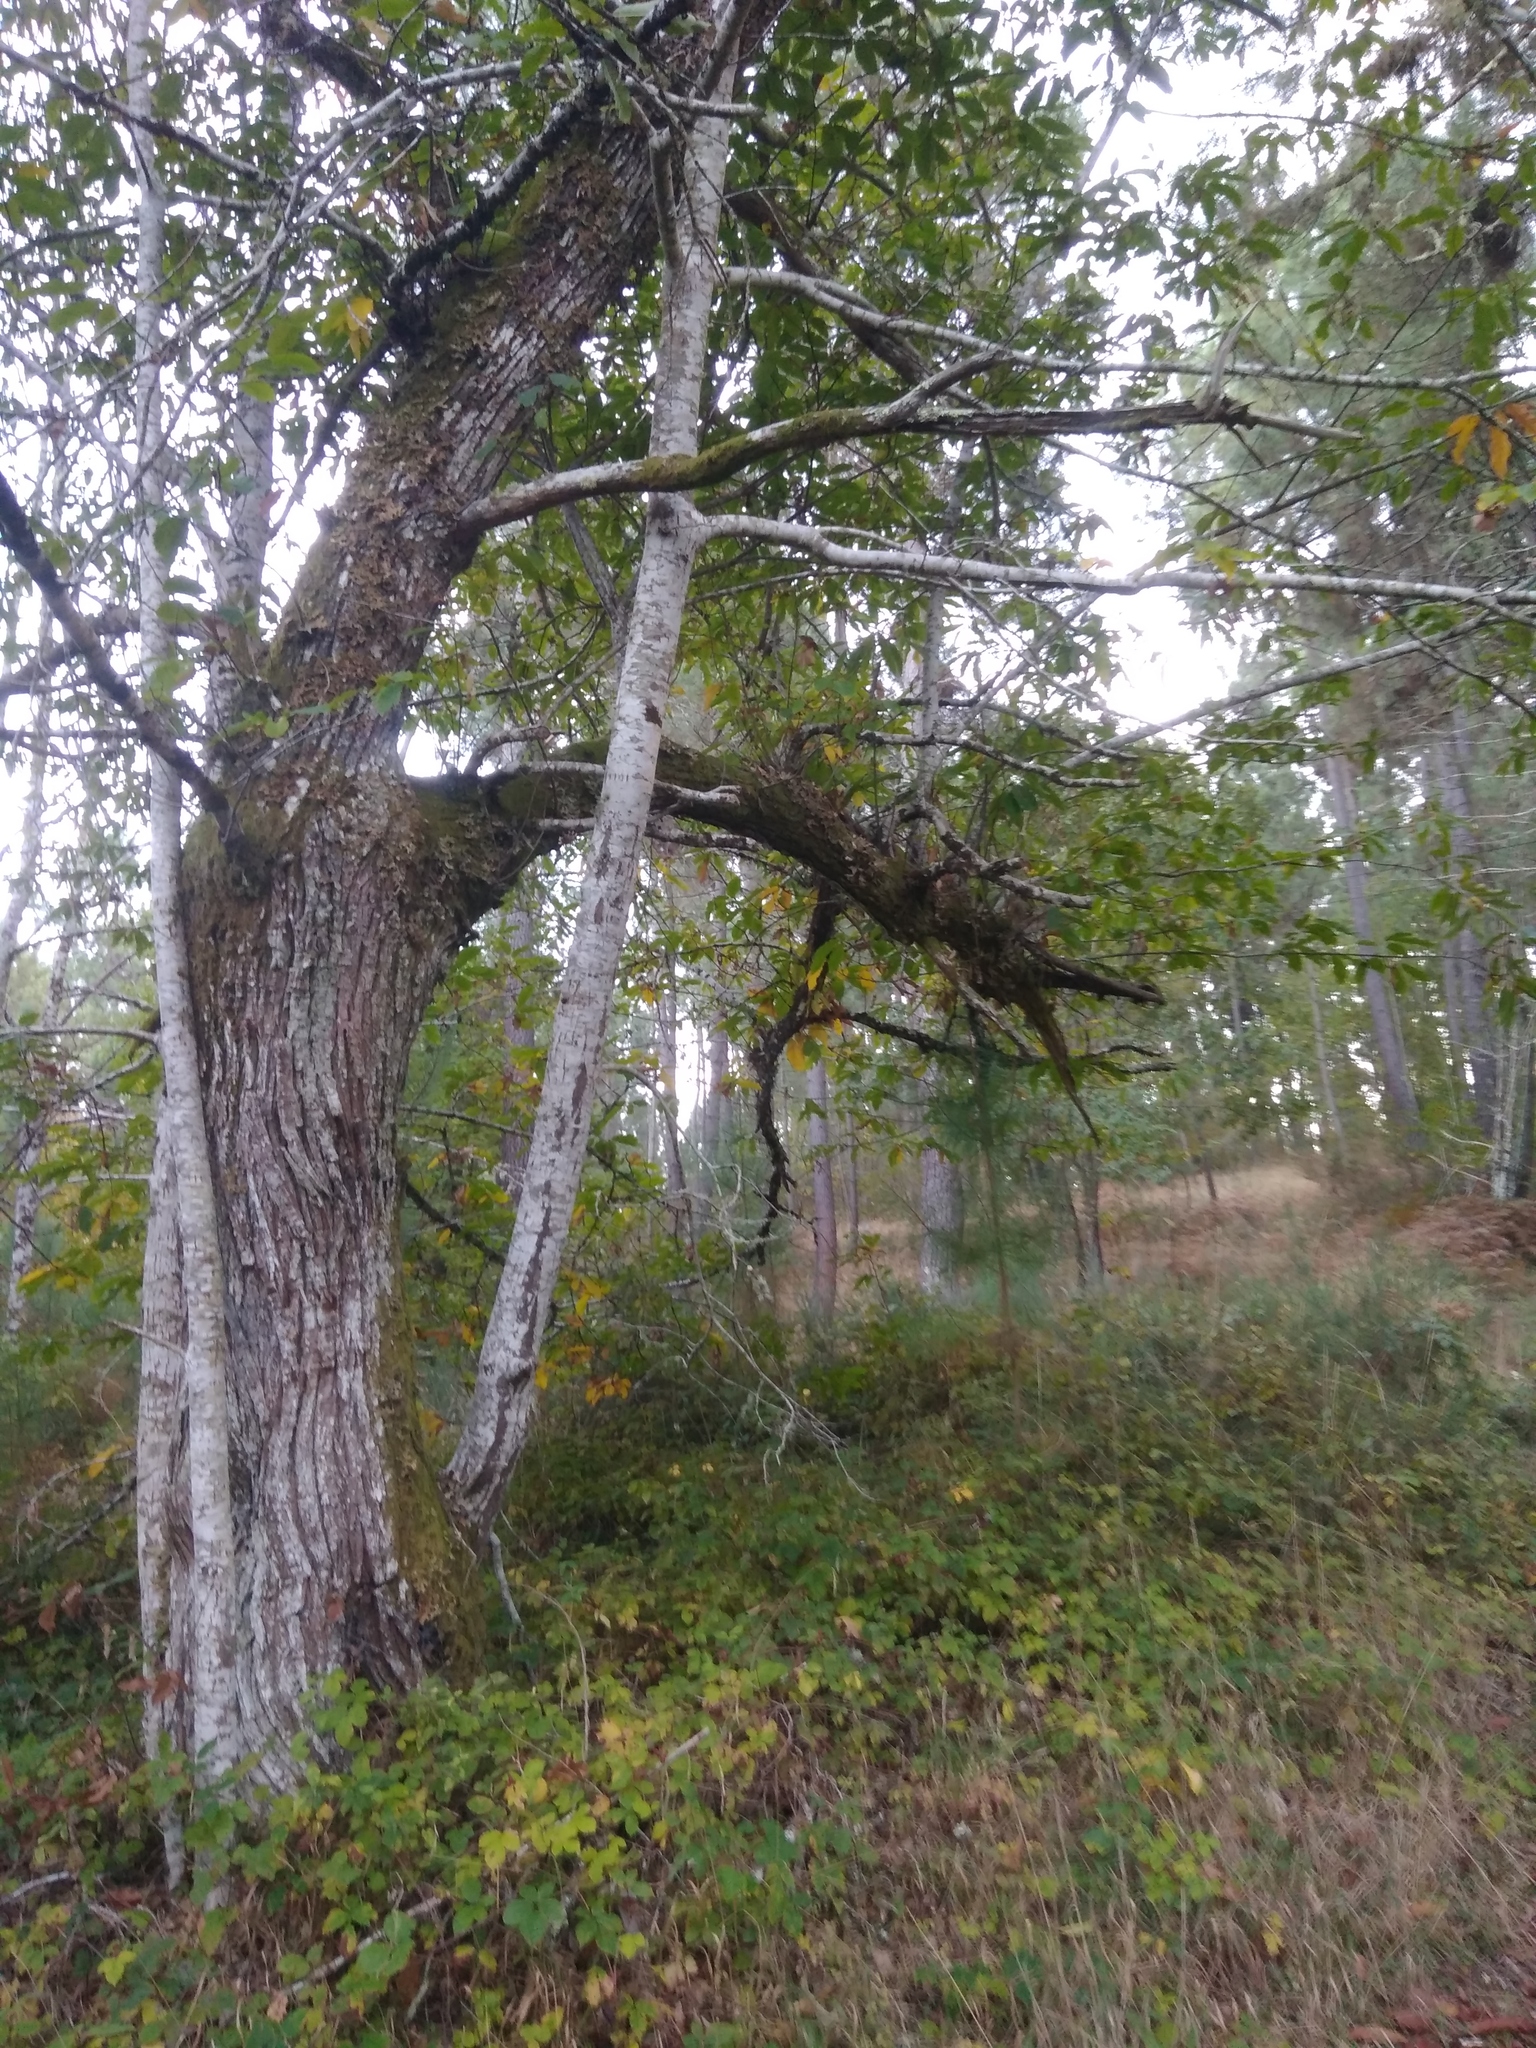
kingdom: Plantae
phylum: Tracheophyta
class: Magnoliopsida
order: Fagales
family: Fagaceae
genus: Castanea
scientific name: Castanea sativa
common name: Sweet chestnut
